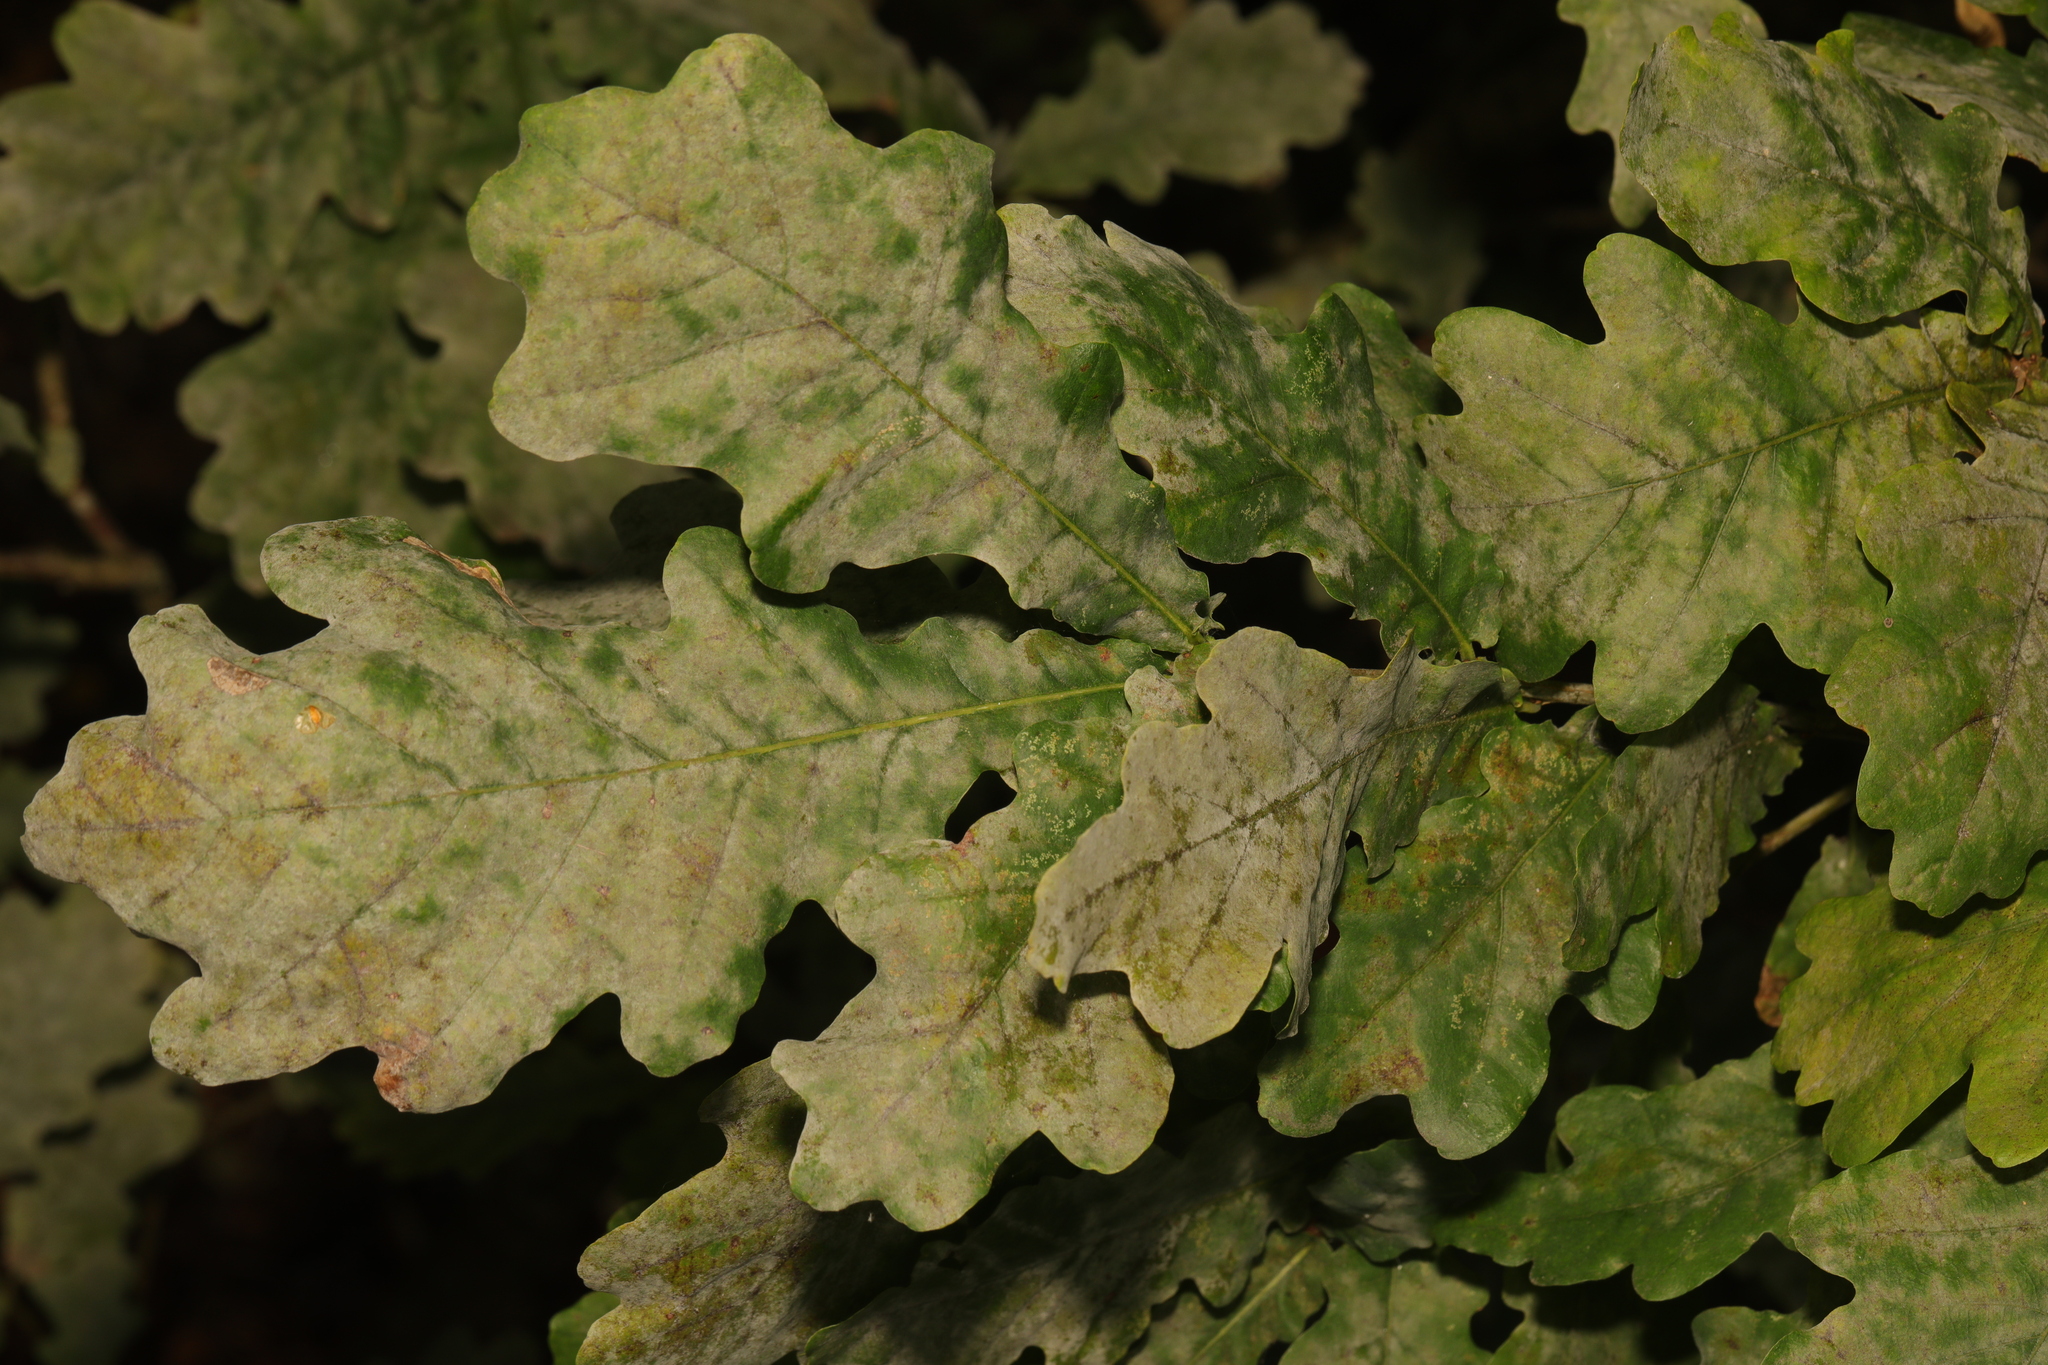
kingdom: Plantae
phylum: Tracheophyta
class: Magnoliopsida
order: Fagales
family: Fagaceae
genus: Quercus
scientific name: Quercus robur
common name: Pedunculate oak
